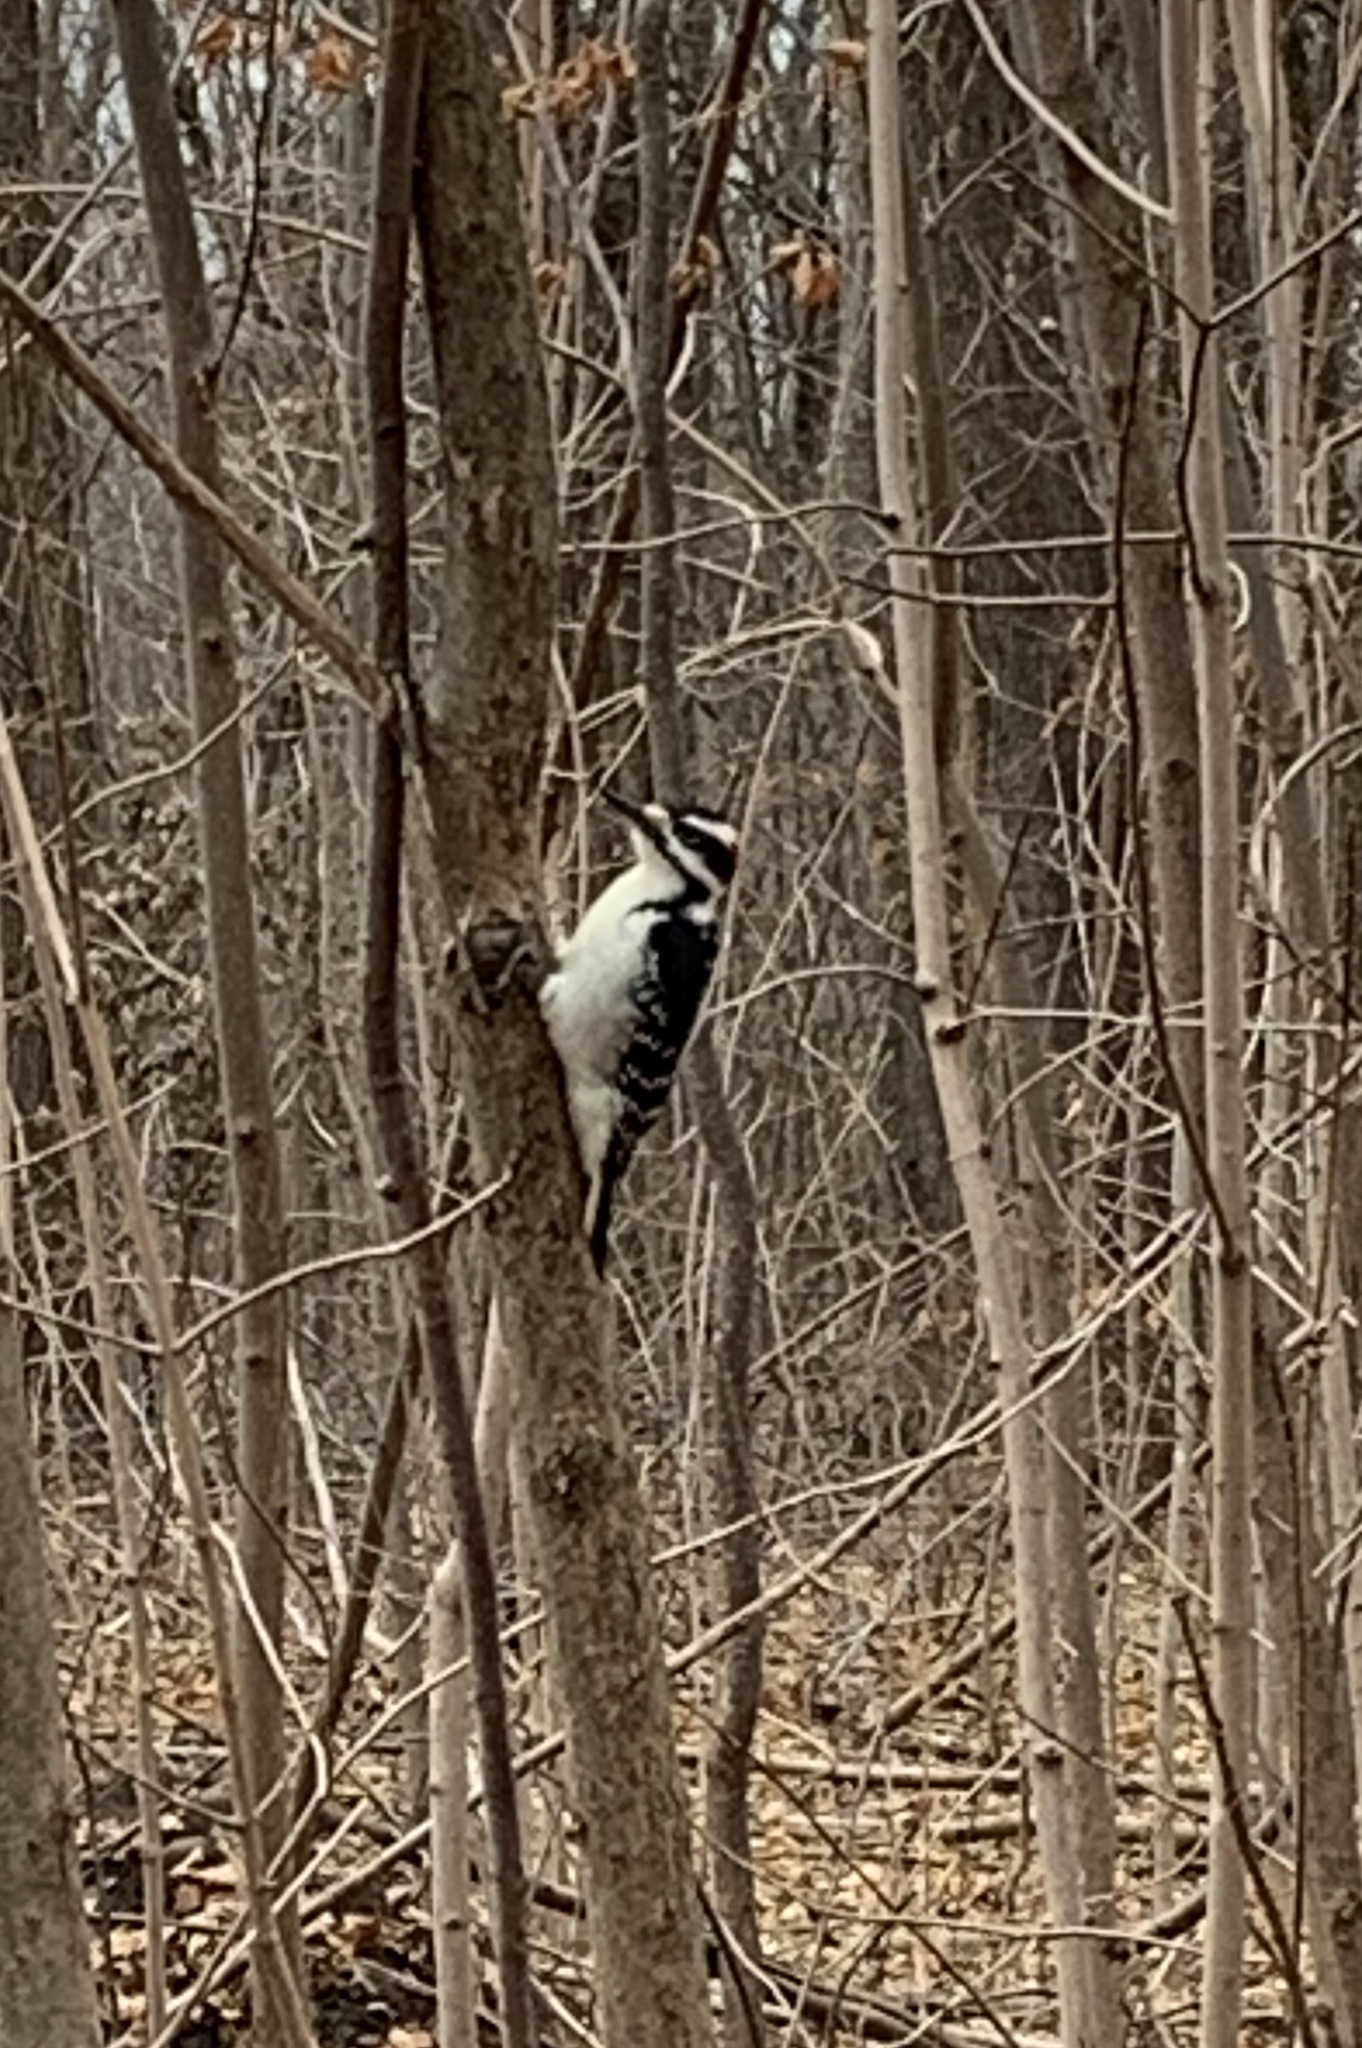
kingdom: Animalia
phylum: Chordata
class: Aves
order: Piciformes
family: Picidae
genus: Leuconotopicus
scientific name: Leuconotopicus villosus
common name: Hairy woodpecker
